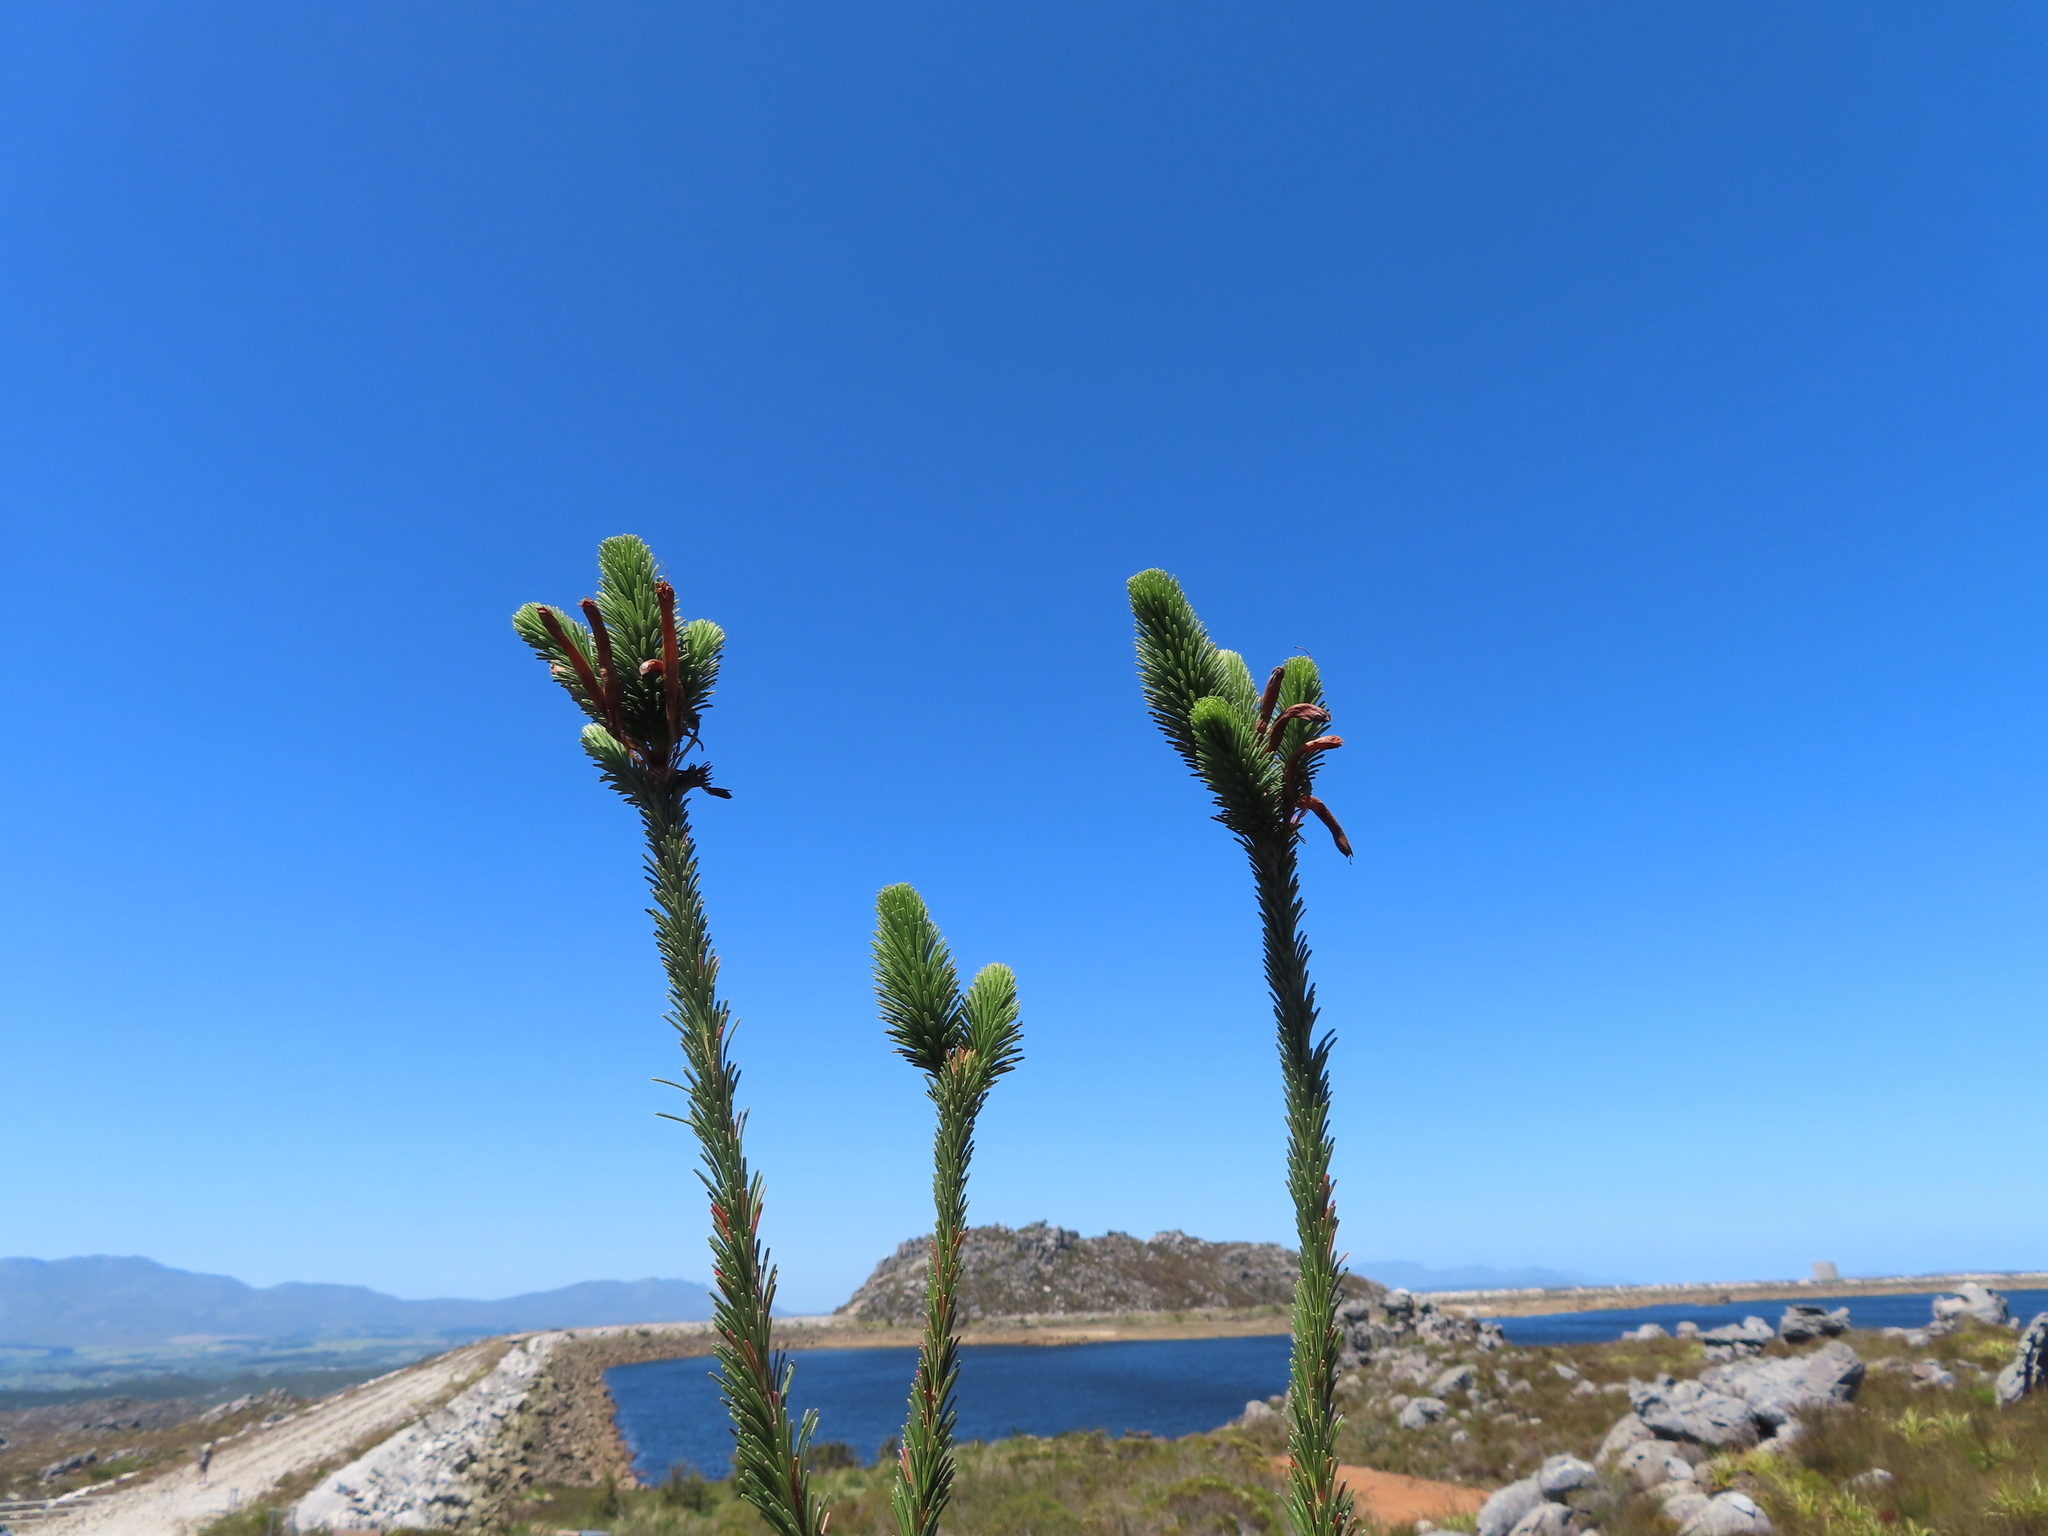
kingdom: Plantae
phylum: Tracheophyta
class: Magnoliopsida
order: Ericales
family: Ericaceae
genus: Erica
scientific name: Erica fascicularis
